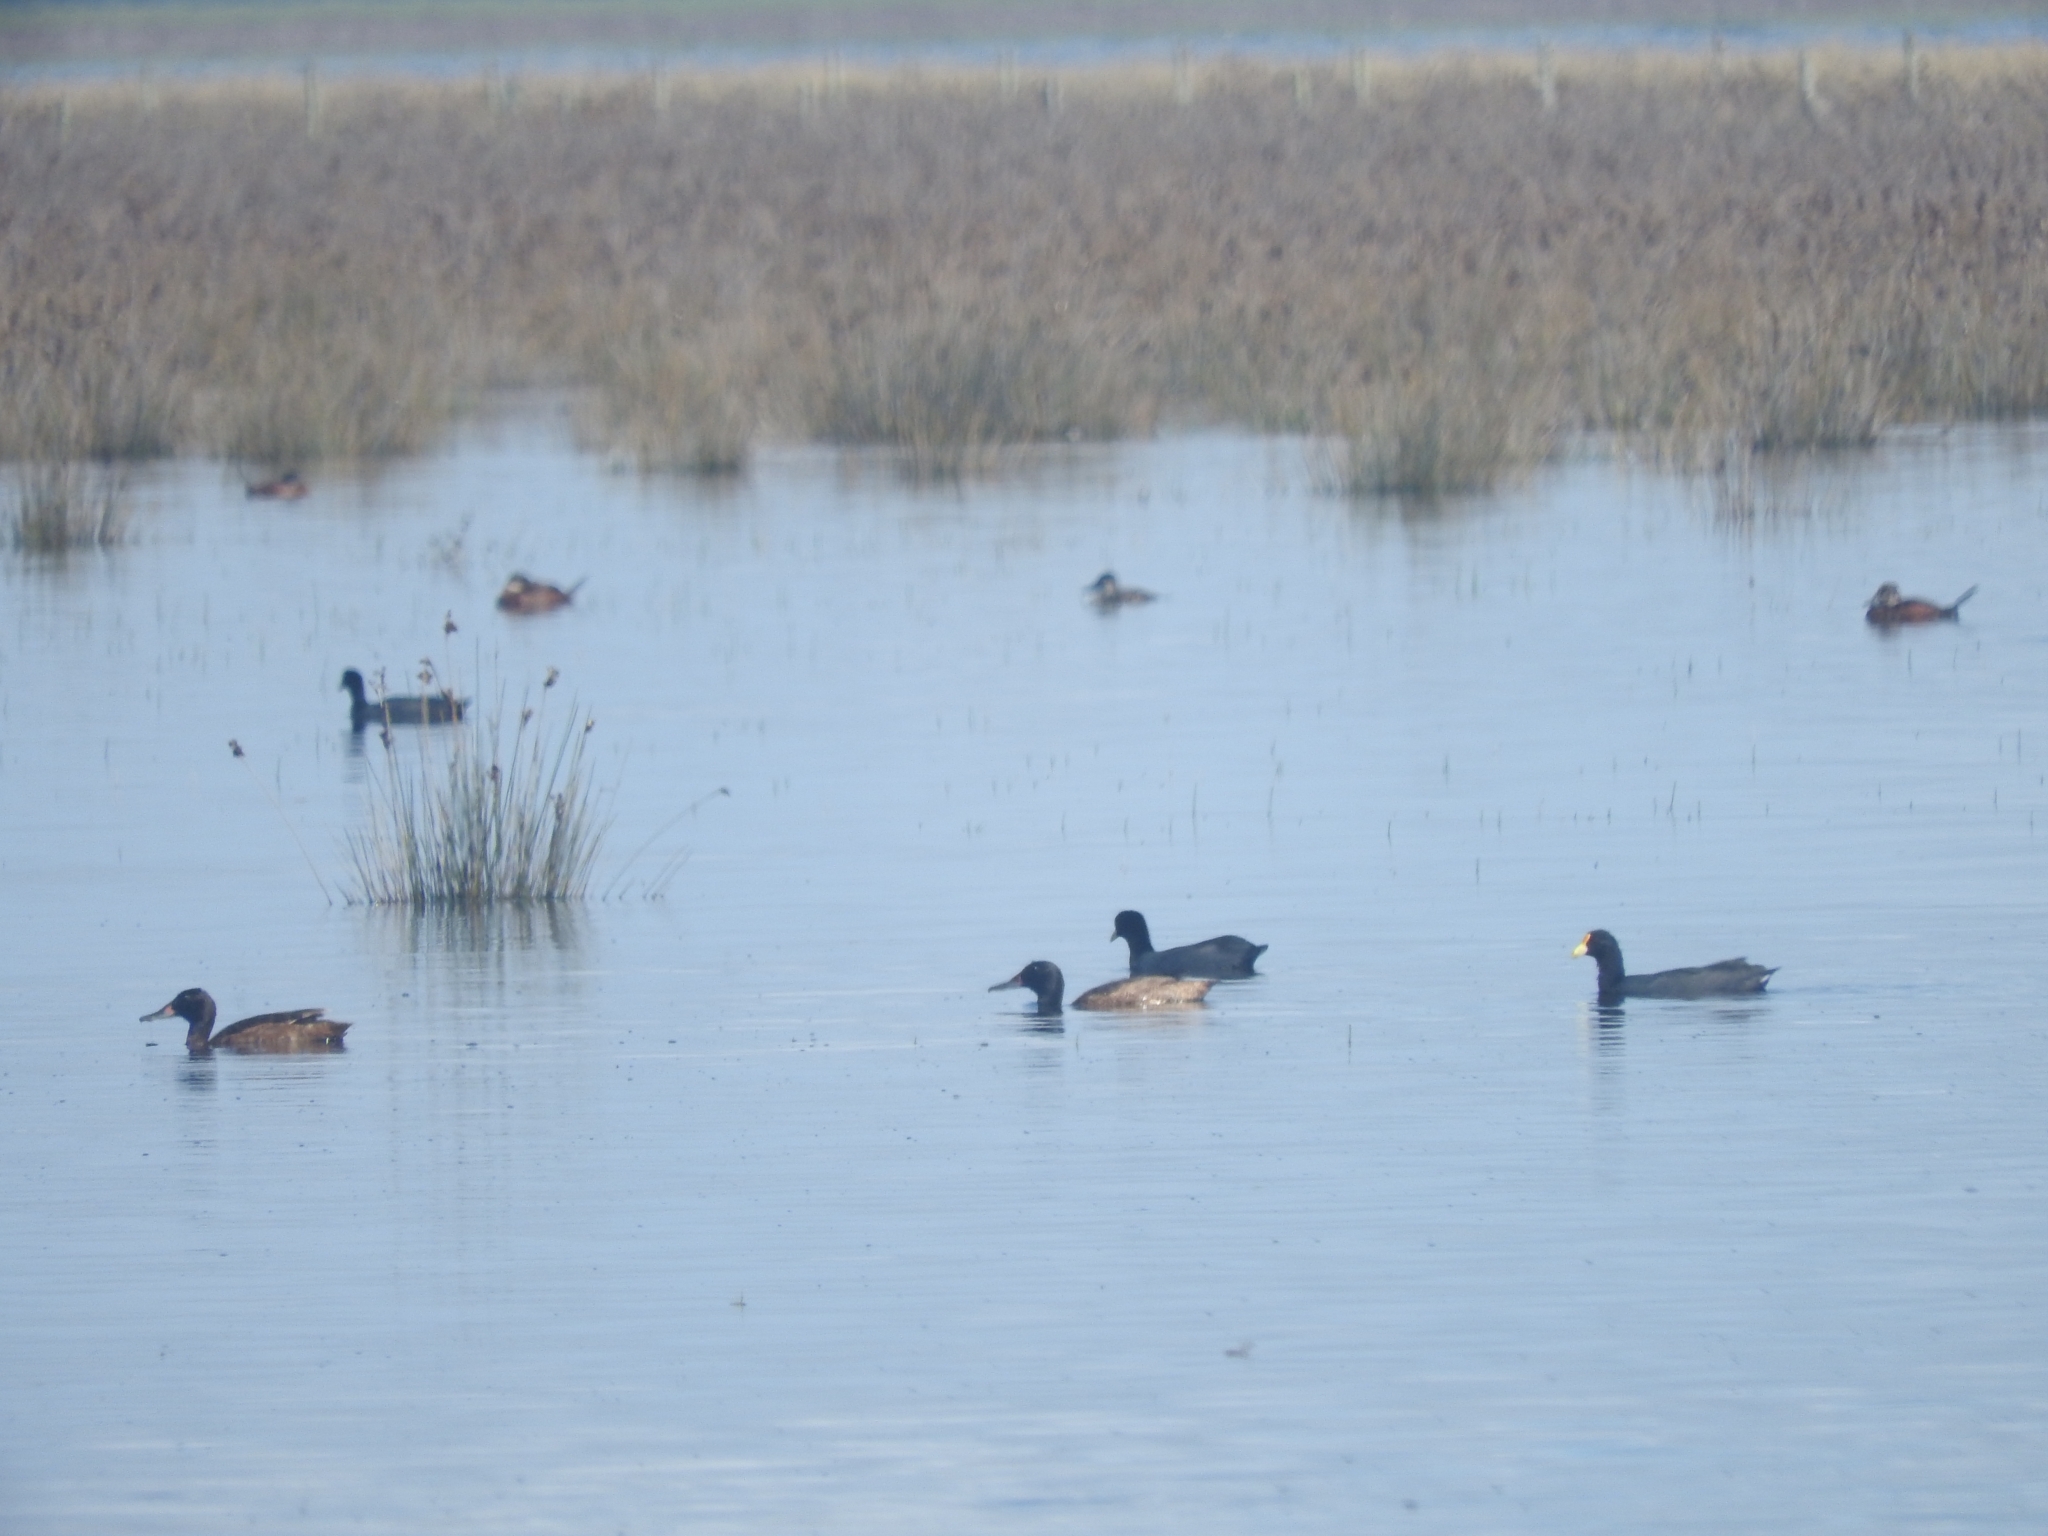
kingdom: Animalia
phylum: Chordata
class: Aves
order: Anseriformes
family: Anatidae
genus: Heteronetta
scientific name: Heteronetta atricapilla
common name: Black-headed duck
